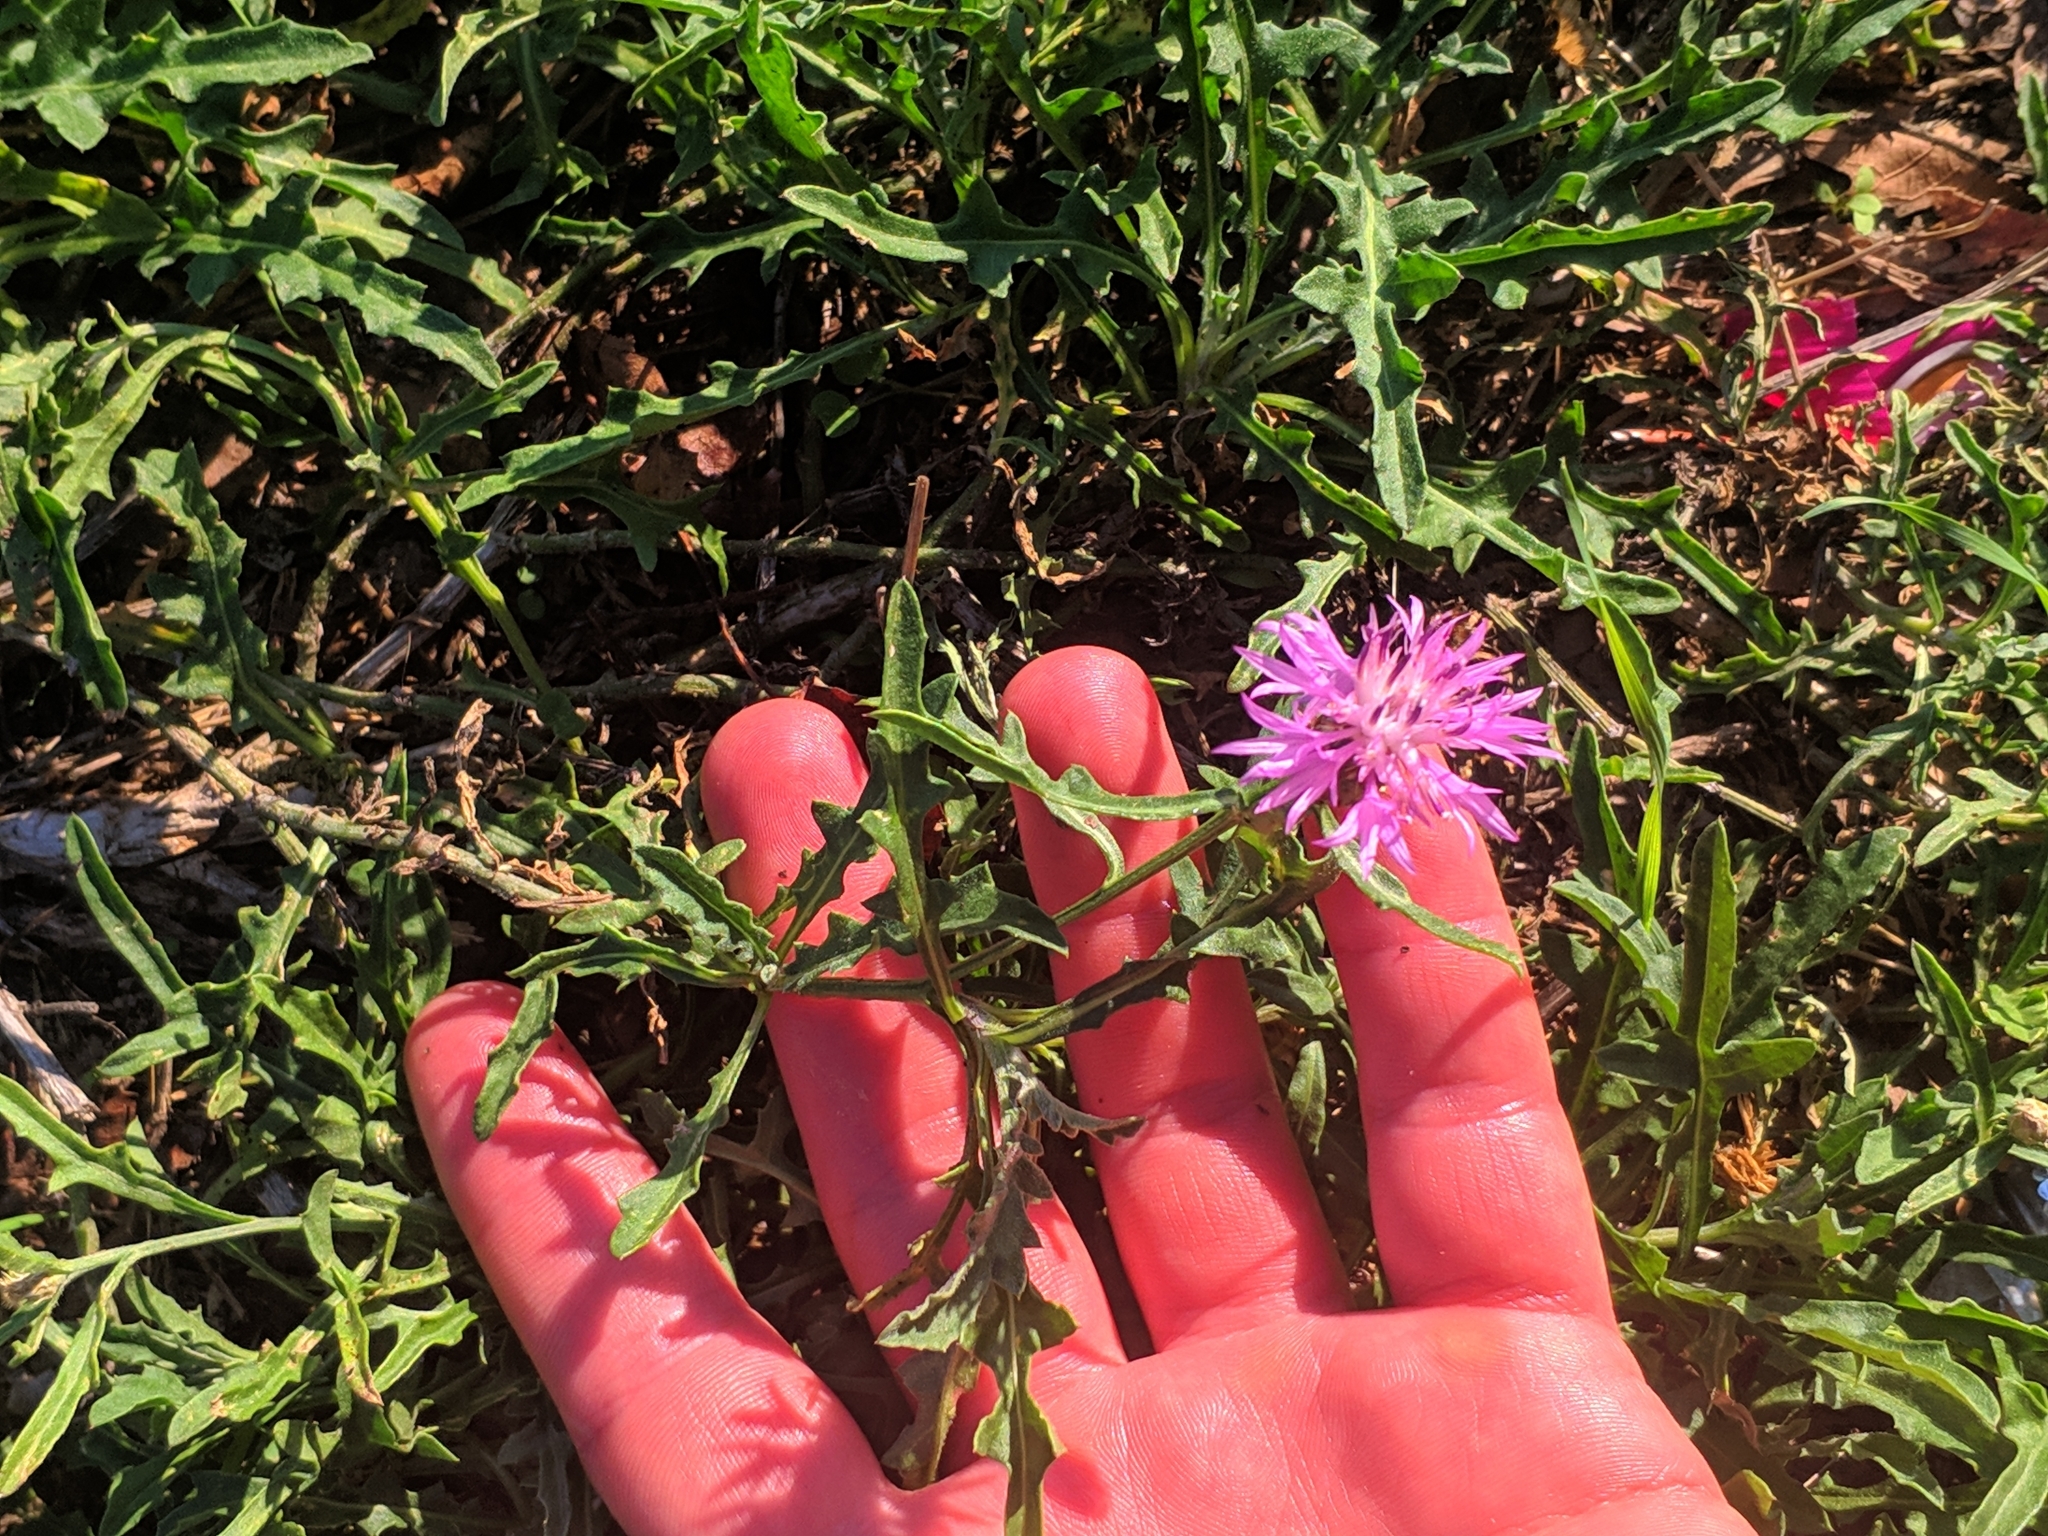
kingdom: Plantae
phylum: Tracheophyta
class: Magnoliopsida
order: Asterales
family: Asteraceae
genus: Centaurea
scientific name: Centaurea aspera
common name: Rough star-thistle
